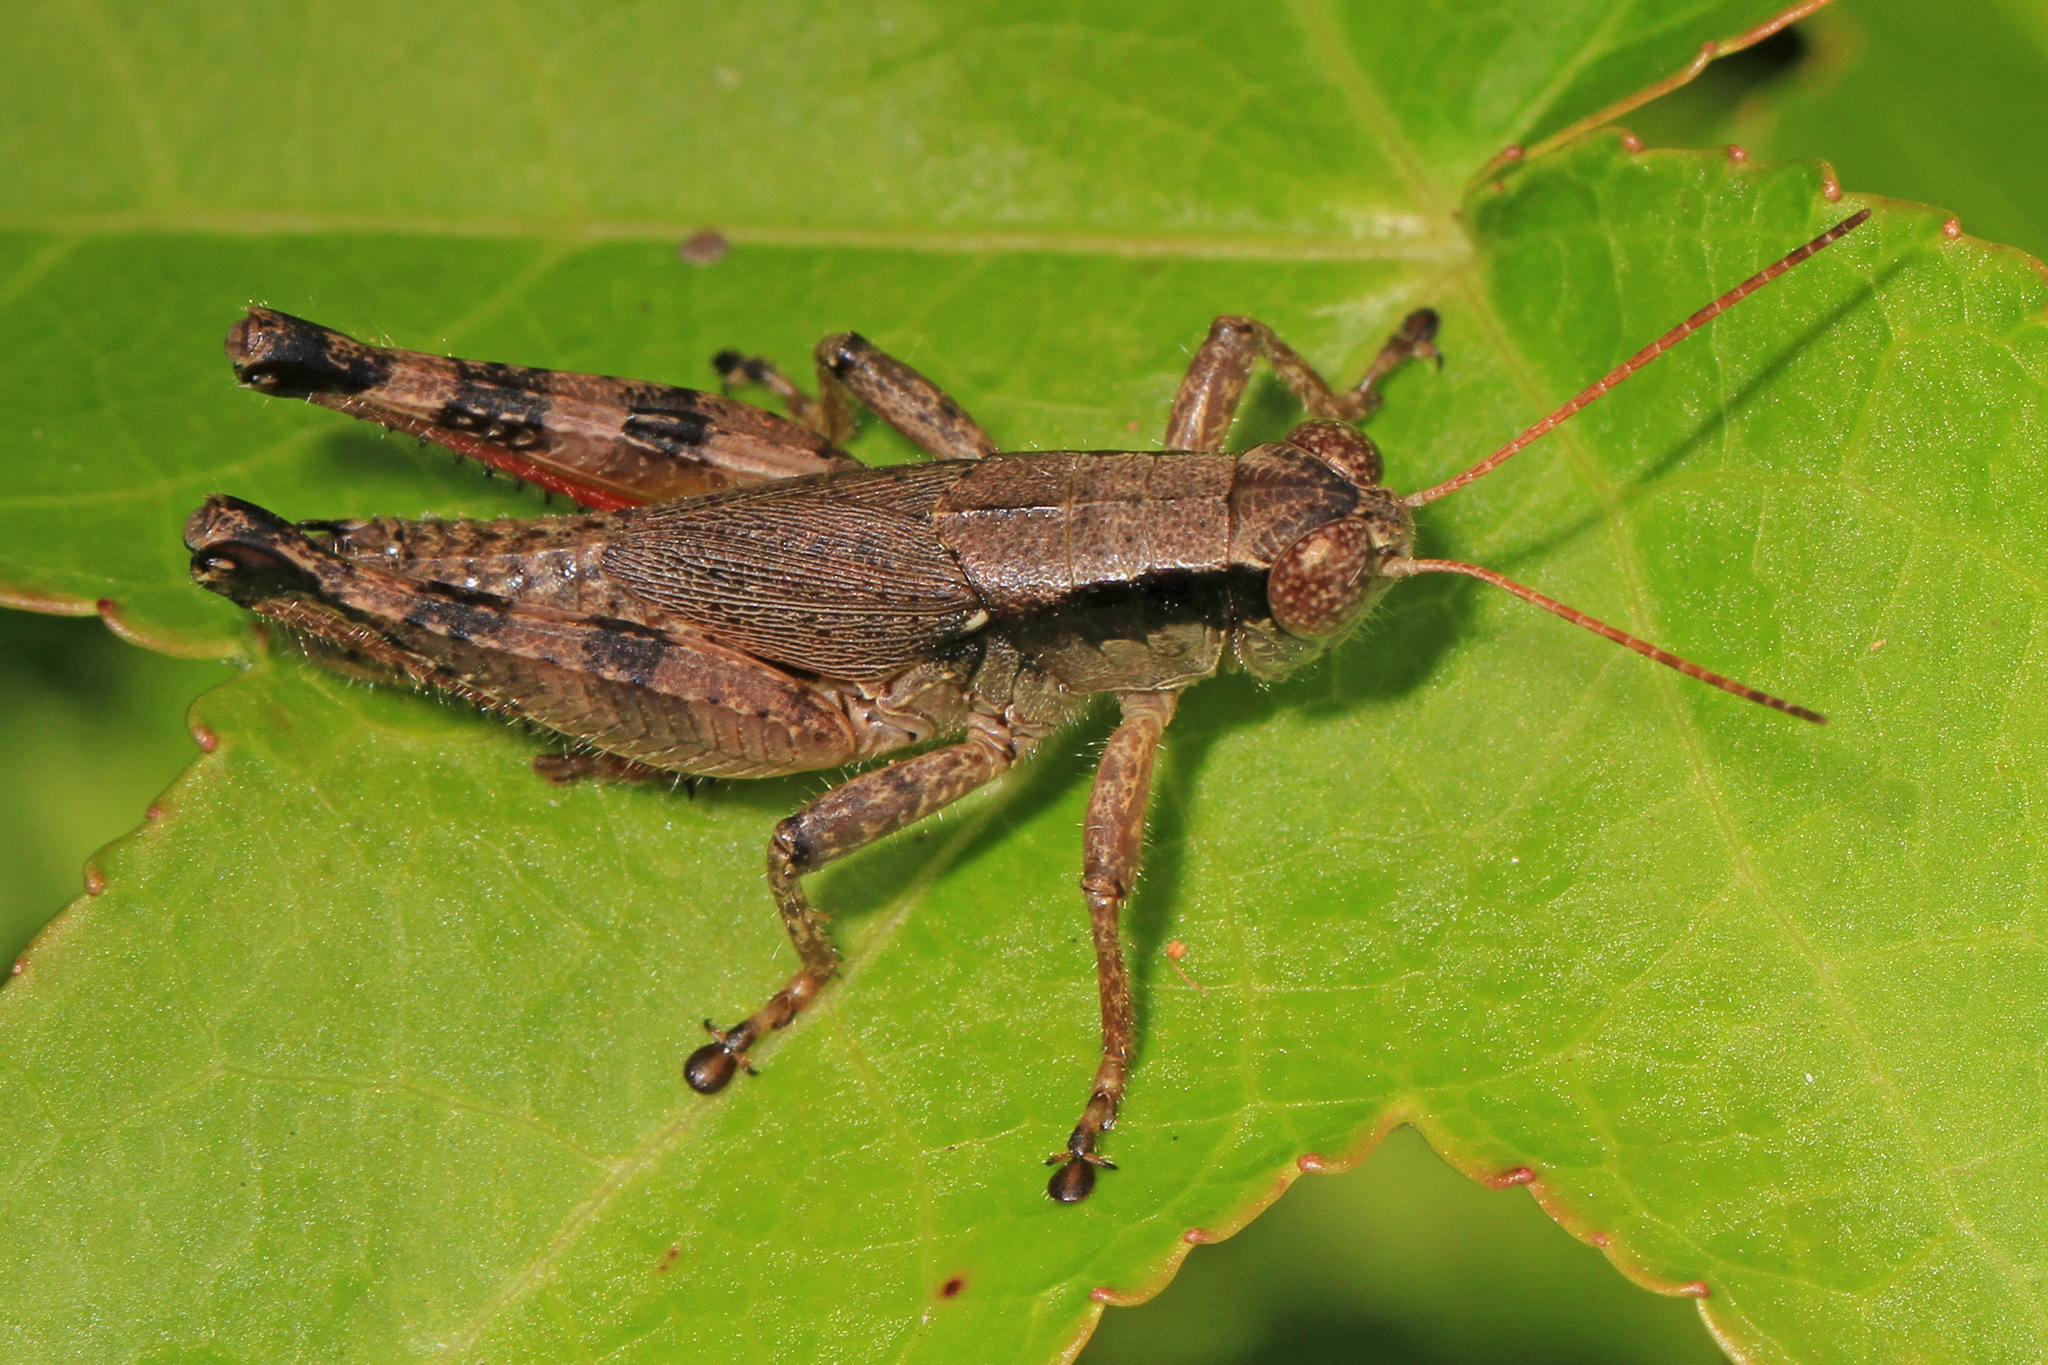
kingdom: Animalia
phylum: Arthropoda
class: Insecta
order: Orthoptera
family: Acrididae
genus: Melanoplus
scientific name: Melanoplus scudderi
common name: Scudder's short-winged locust
